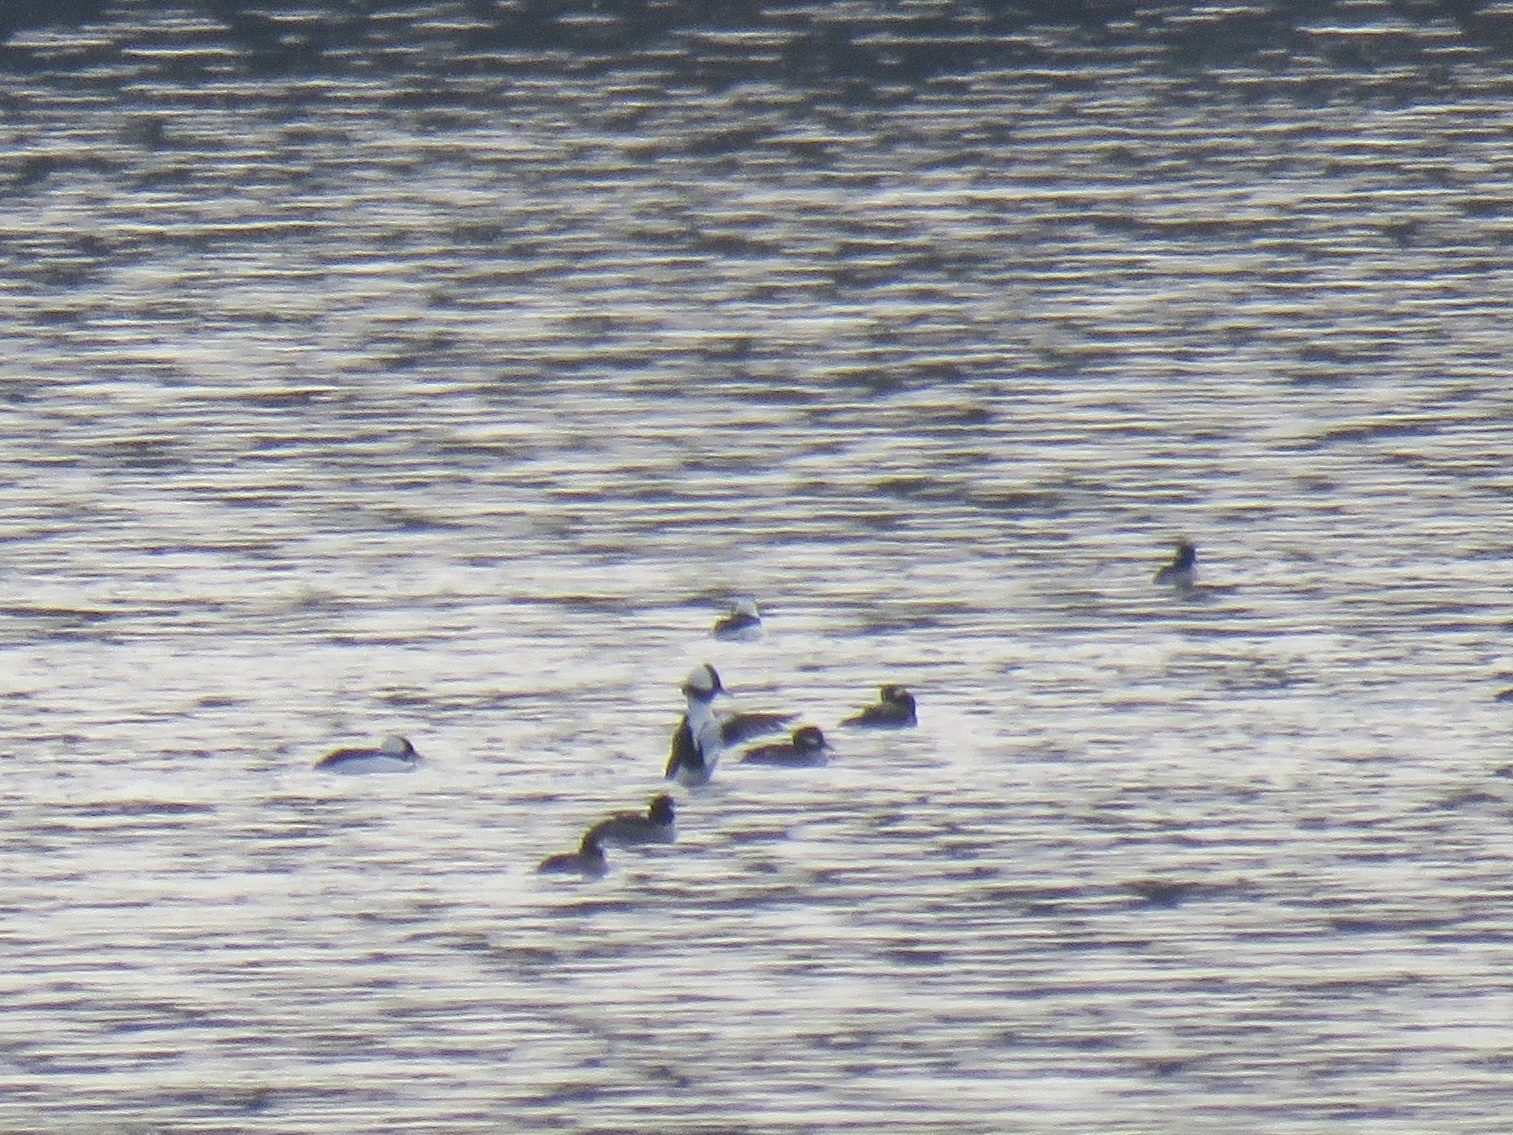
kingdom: Animalia
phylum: Chordata
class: Aves
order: Anseriformes
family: Anatidae
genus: Bucephala
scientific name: Bucephala albeola
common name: Bufflehead
